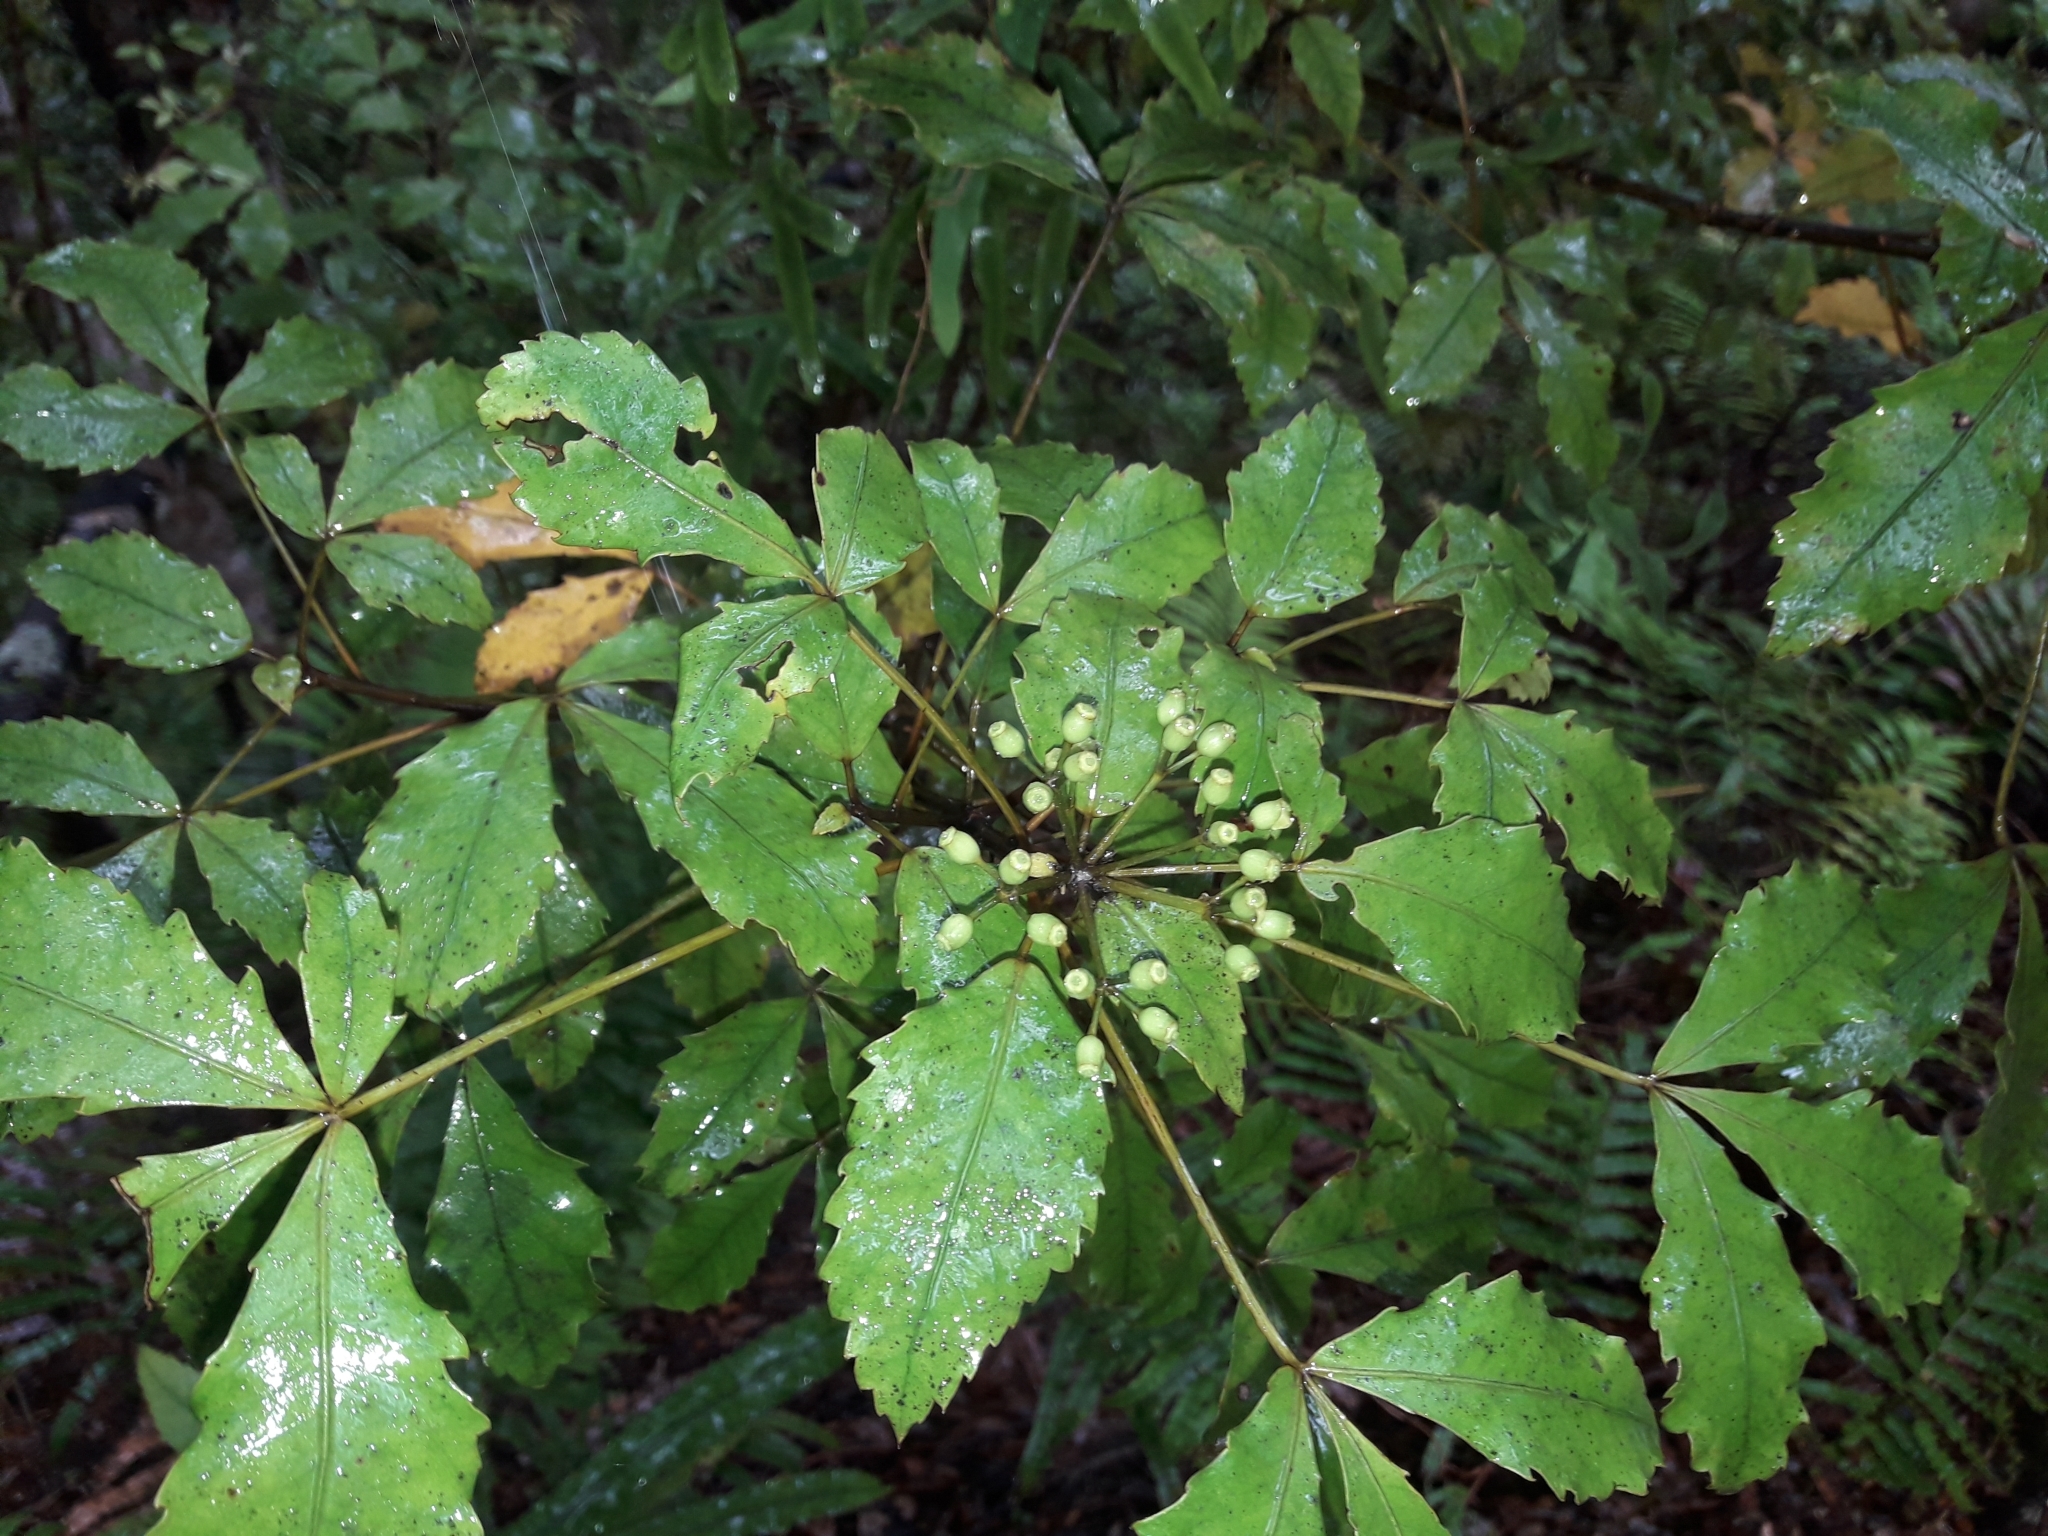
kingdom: Plantae
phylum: Tracheophyta
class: Magnoliopsida
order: Apiales
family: Araliaceae
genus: Pseudopanax
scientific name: Pseudopanax discolor
